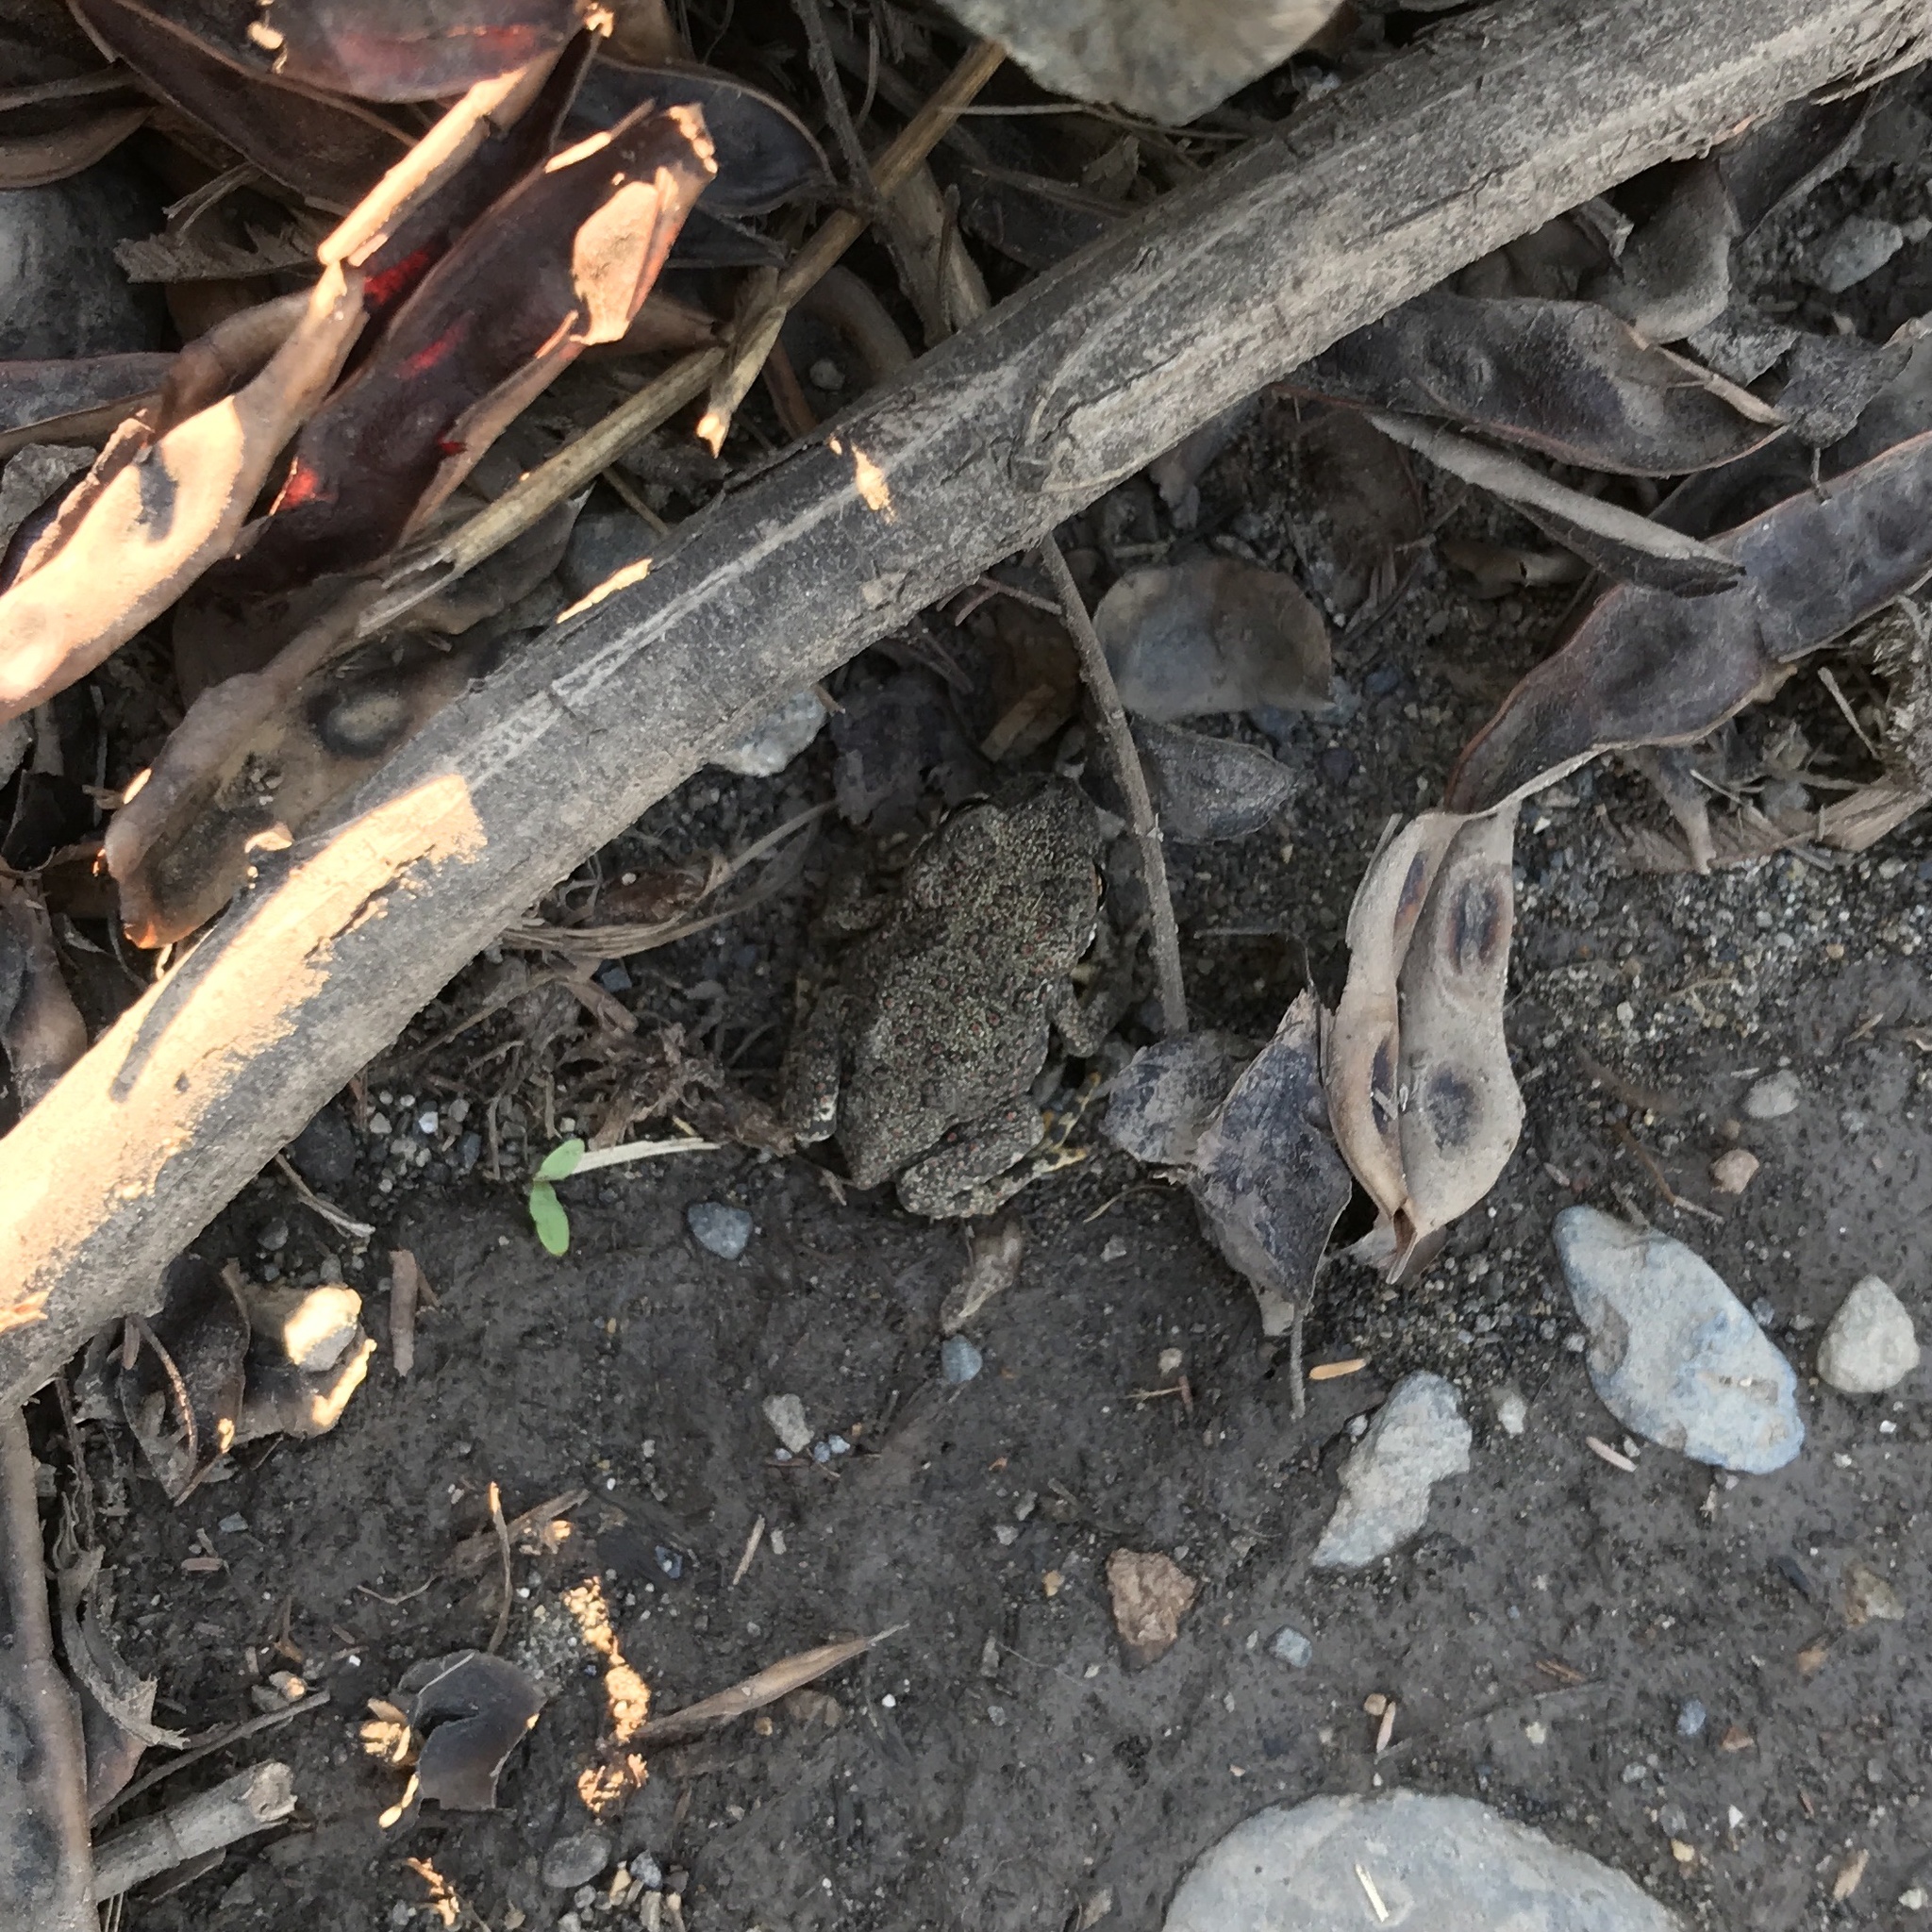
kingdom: Animalia
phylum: Chordata
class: Amphibia
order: Anura
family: Bufonidae
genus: Rhinella
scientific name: Rhinella arunco
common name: Concepcion toad
